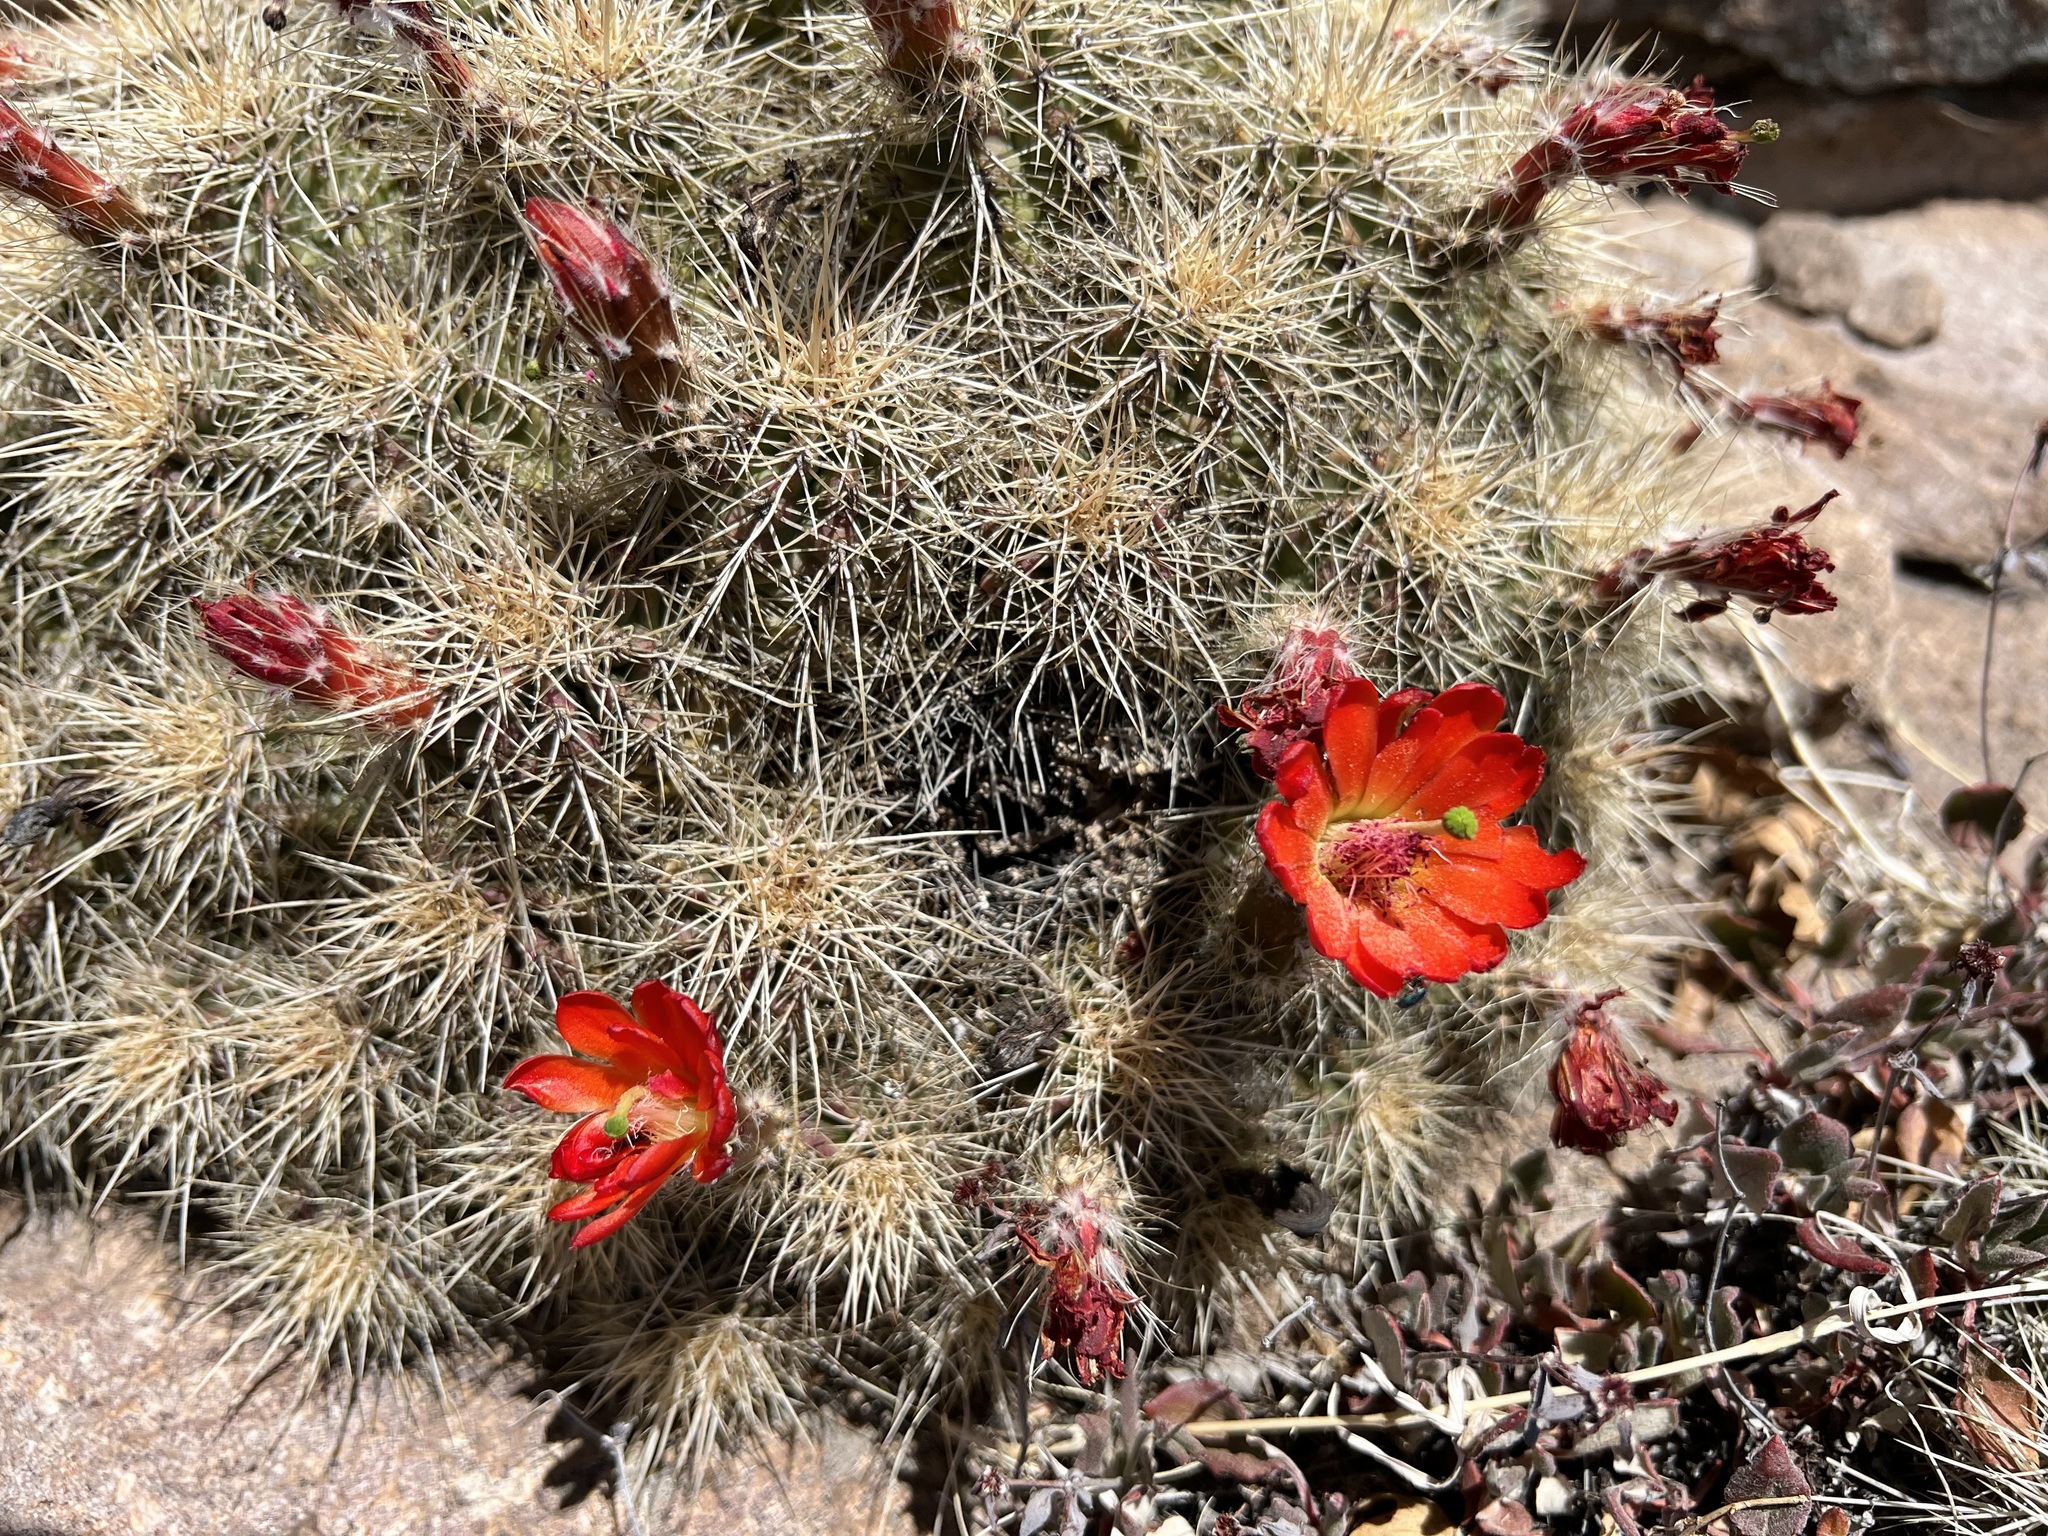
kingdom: Plantae
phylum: Tracheophyta
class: Magnoliopsida
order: Caryophyllales
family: Cactaceae
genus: Echinocereus
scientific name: Echinocereus coccineus
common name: Scarlet hedgehog cactus
